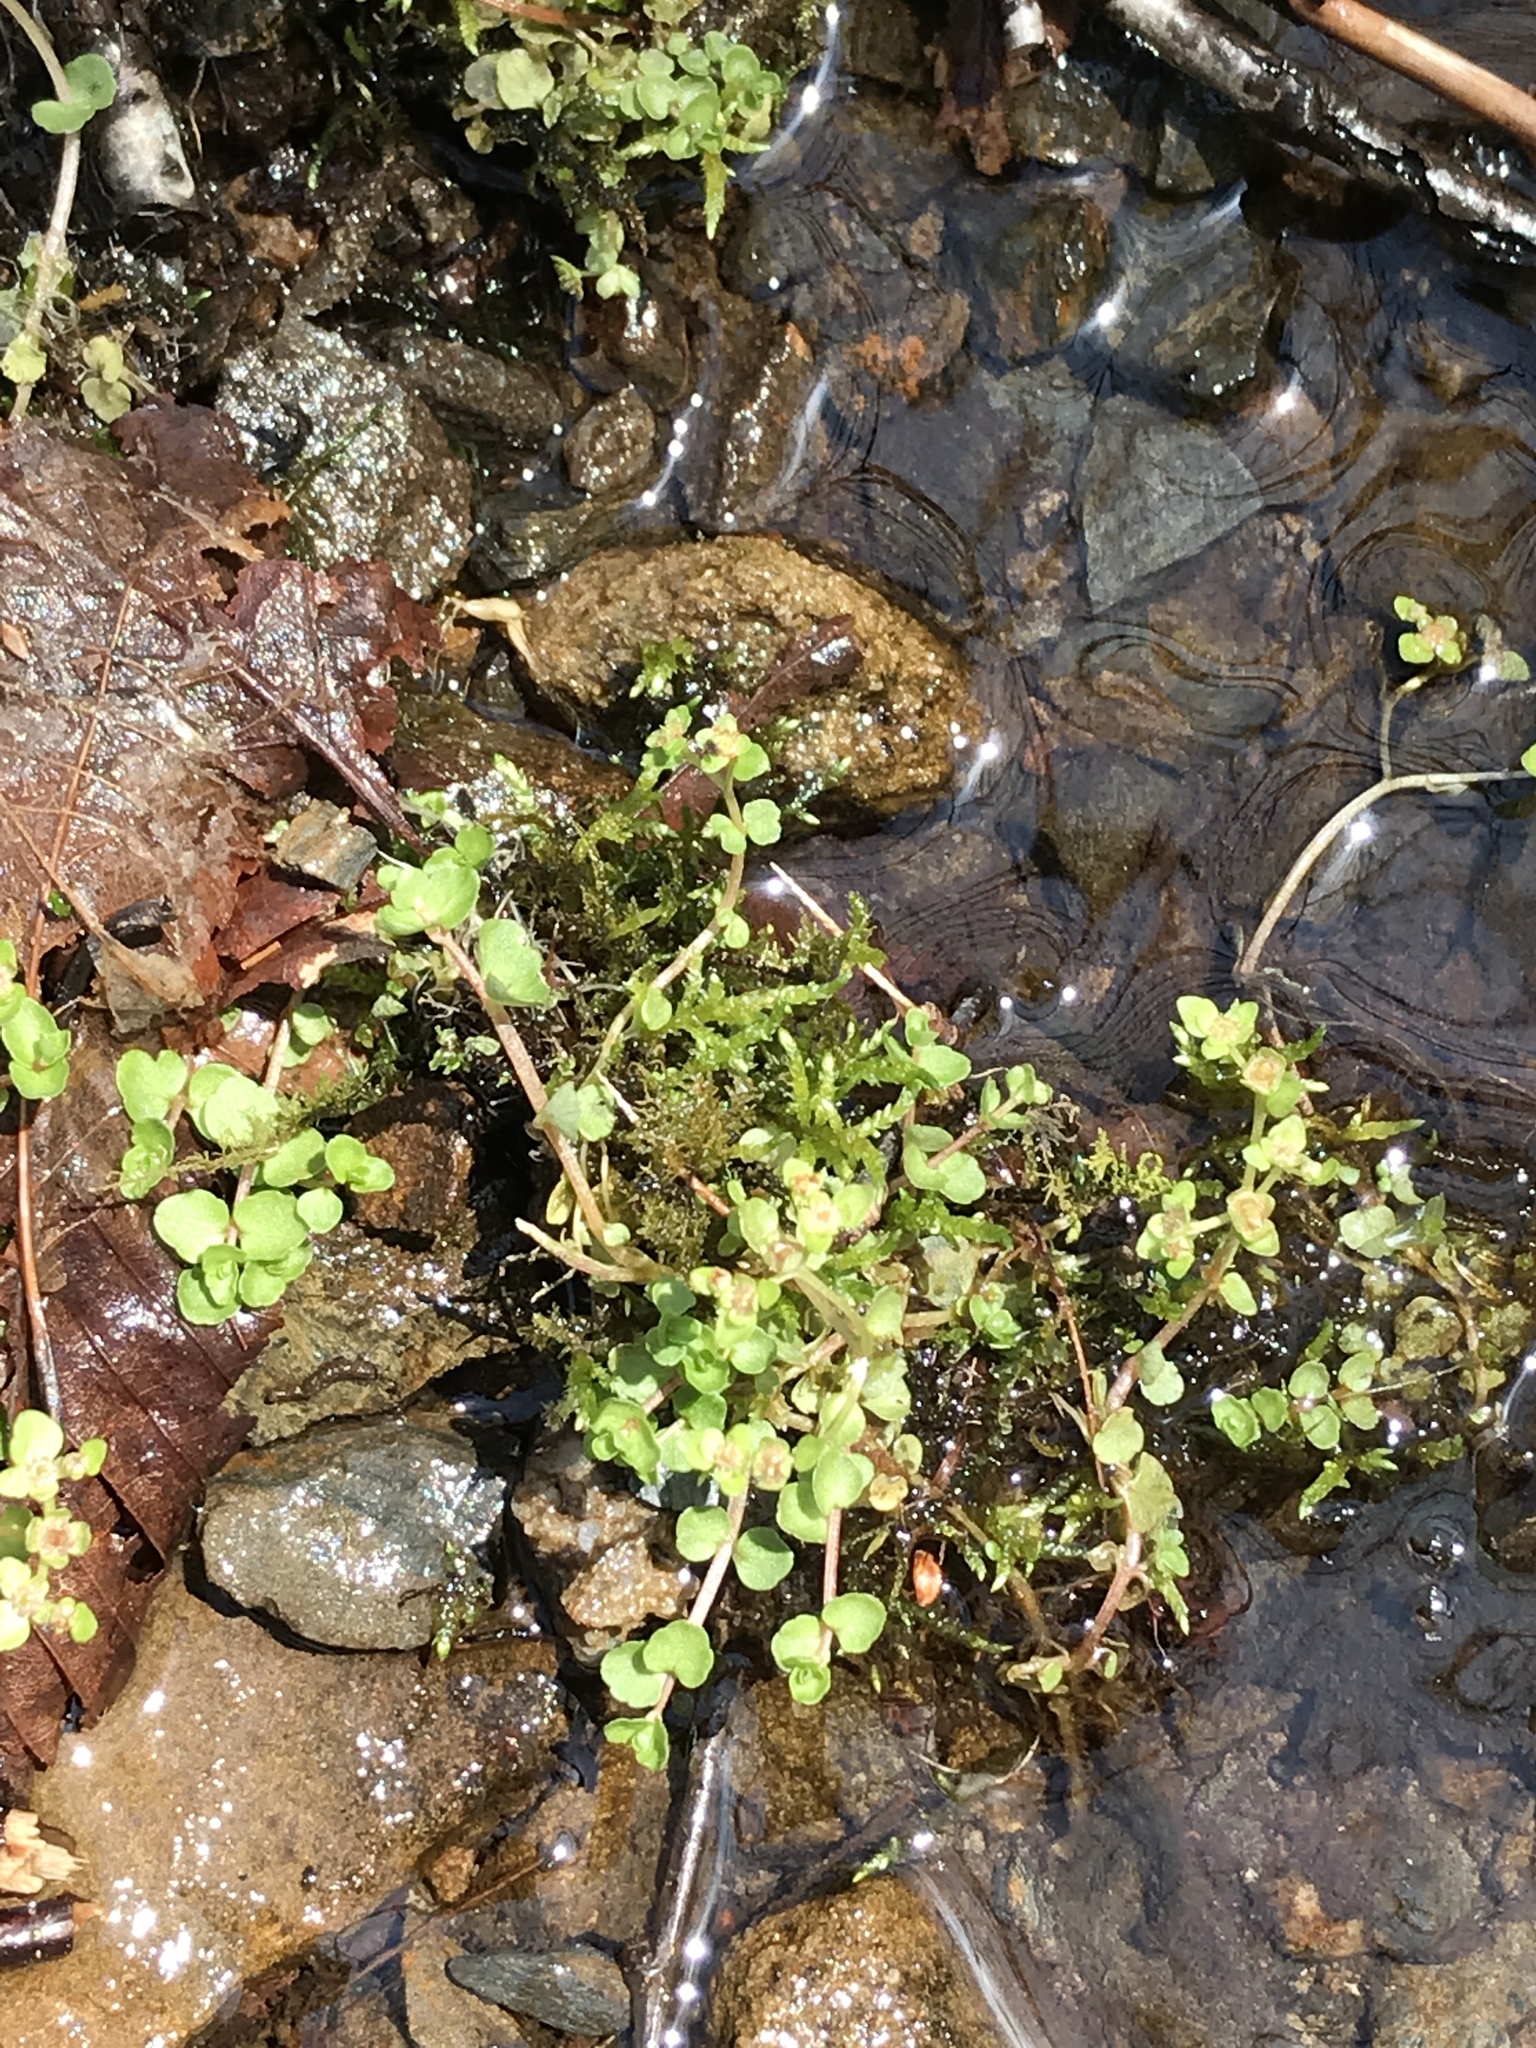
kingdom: Plantae
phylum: Tracheophyta
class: Magnoliopsida
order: Saxifragales
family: Saxifragaceae
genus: Chrysosplenium
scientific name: Chrysosplenium americanum
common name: American golden-saxifrage
